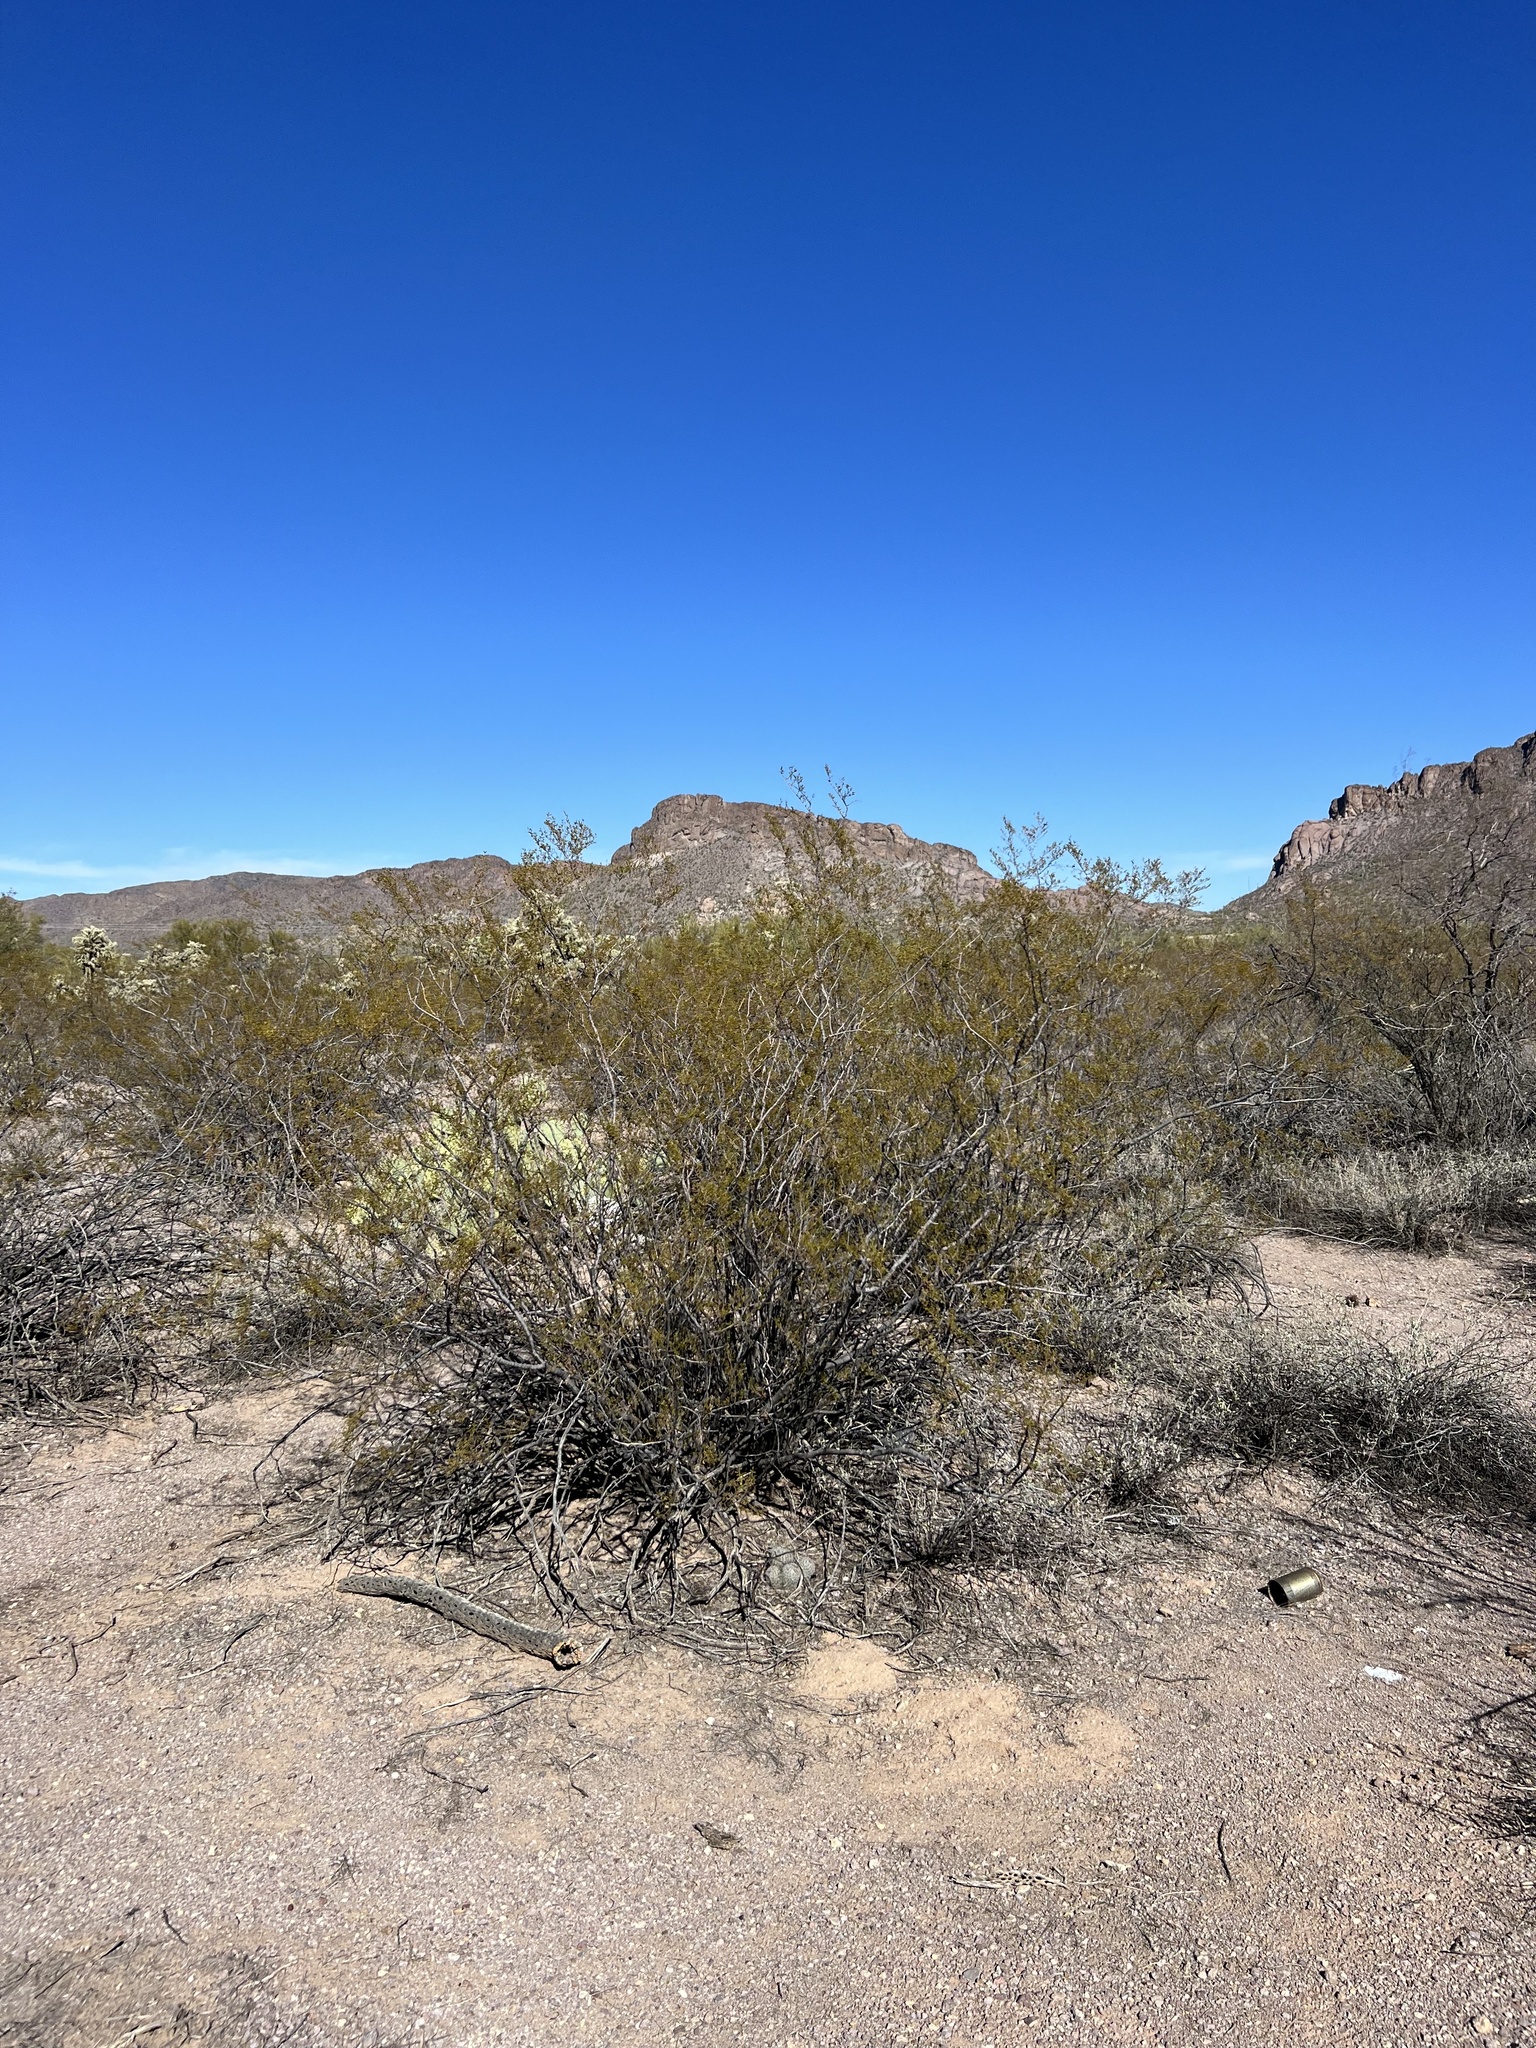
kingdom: Plantae
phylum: Tracheophyta
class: Magnoliopsida
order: Zygophyllales
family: Zygophyllaceae
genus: Larrea
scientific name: Larrea tridentata
